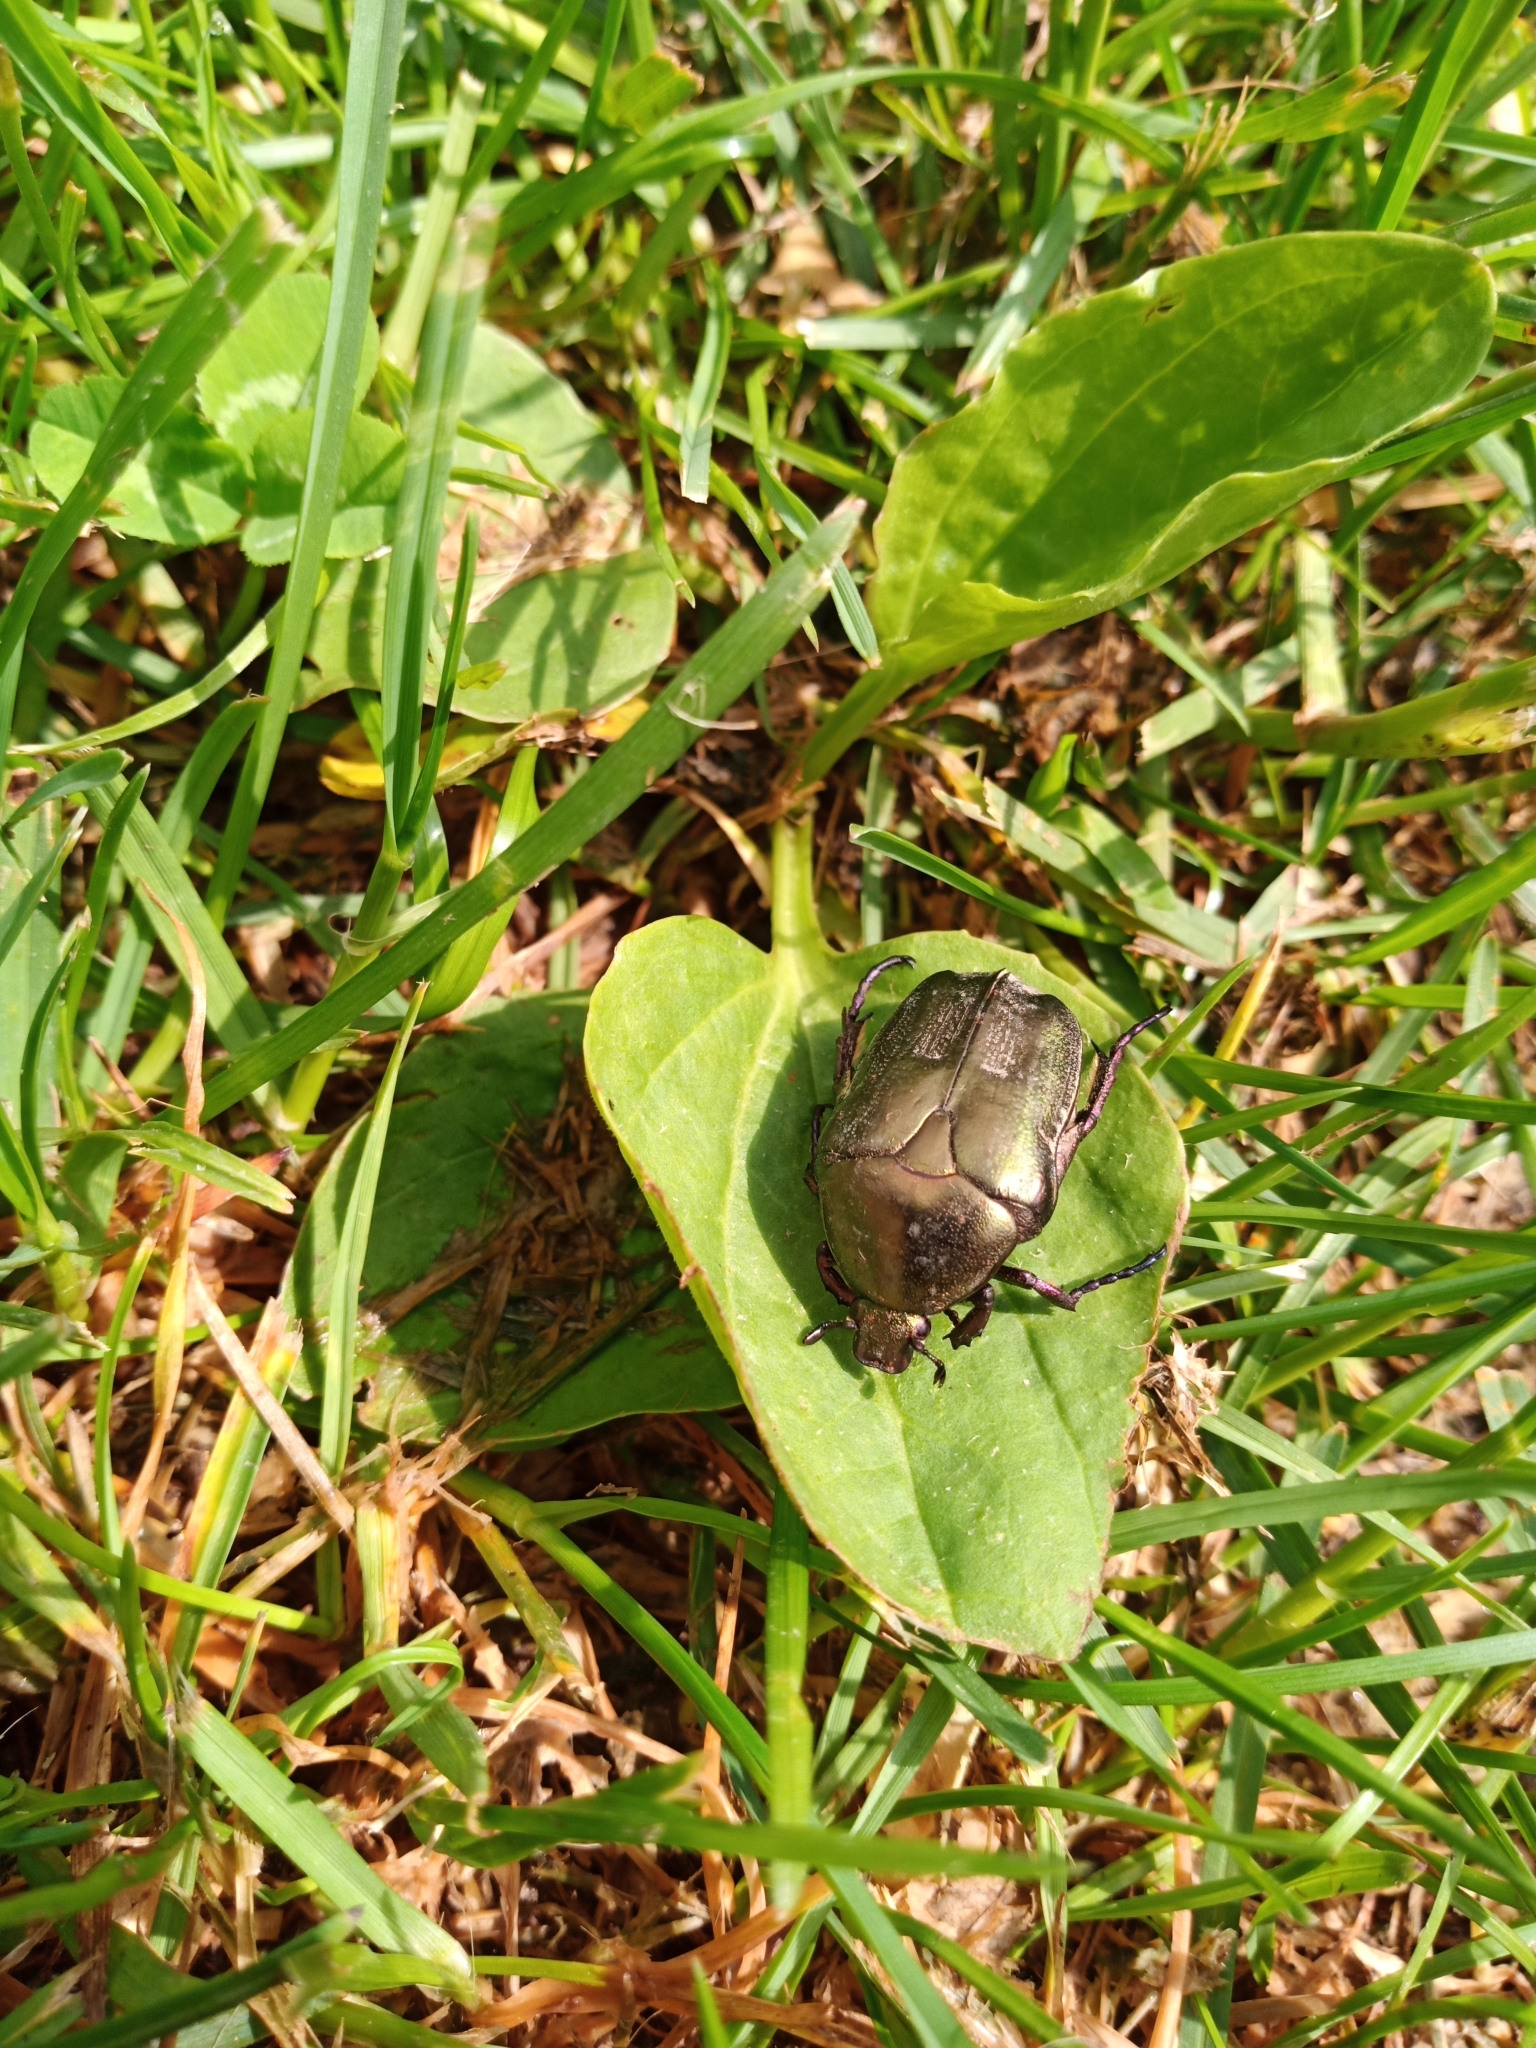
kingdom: Animalia
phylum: Arthropoda
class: Insecta
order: Coleoptera
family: Scarabaeidae
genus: Protaetia
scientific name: Protaetia cuprea
